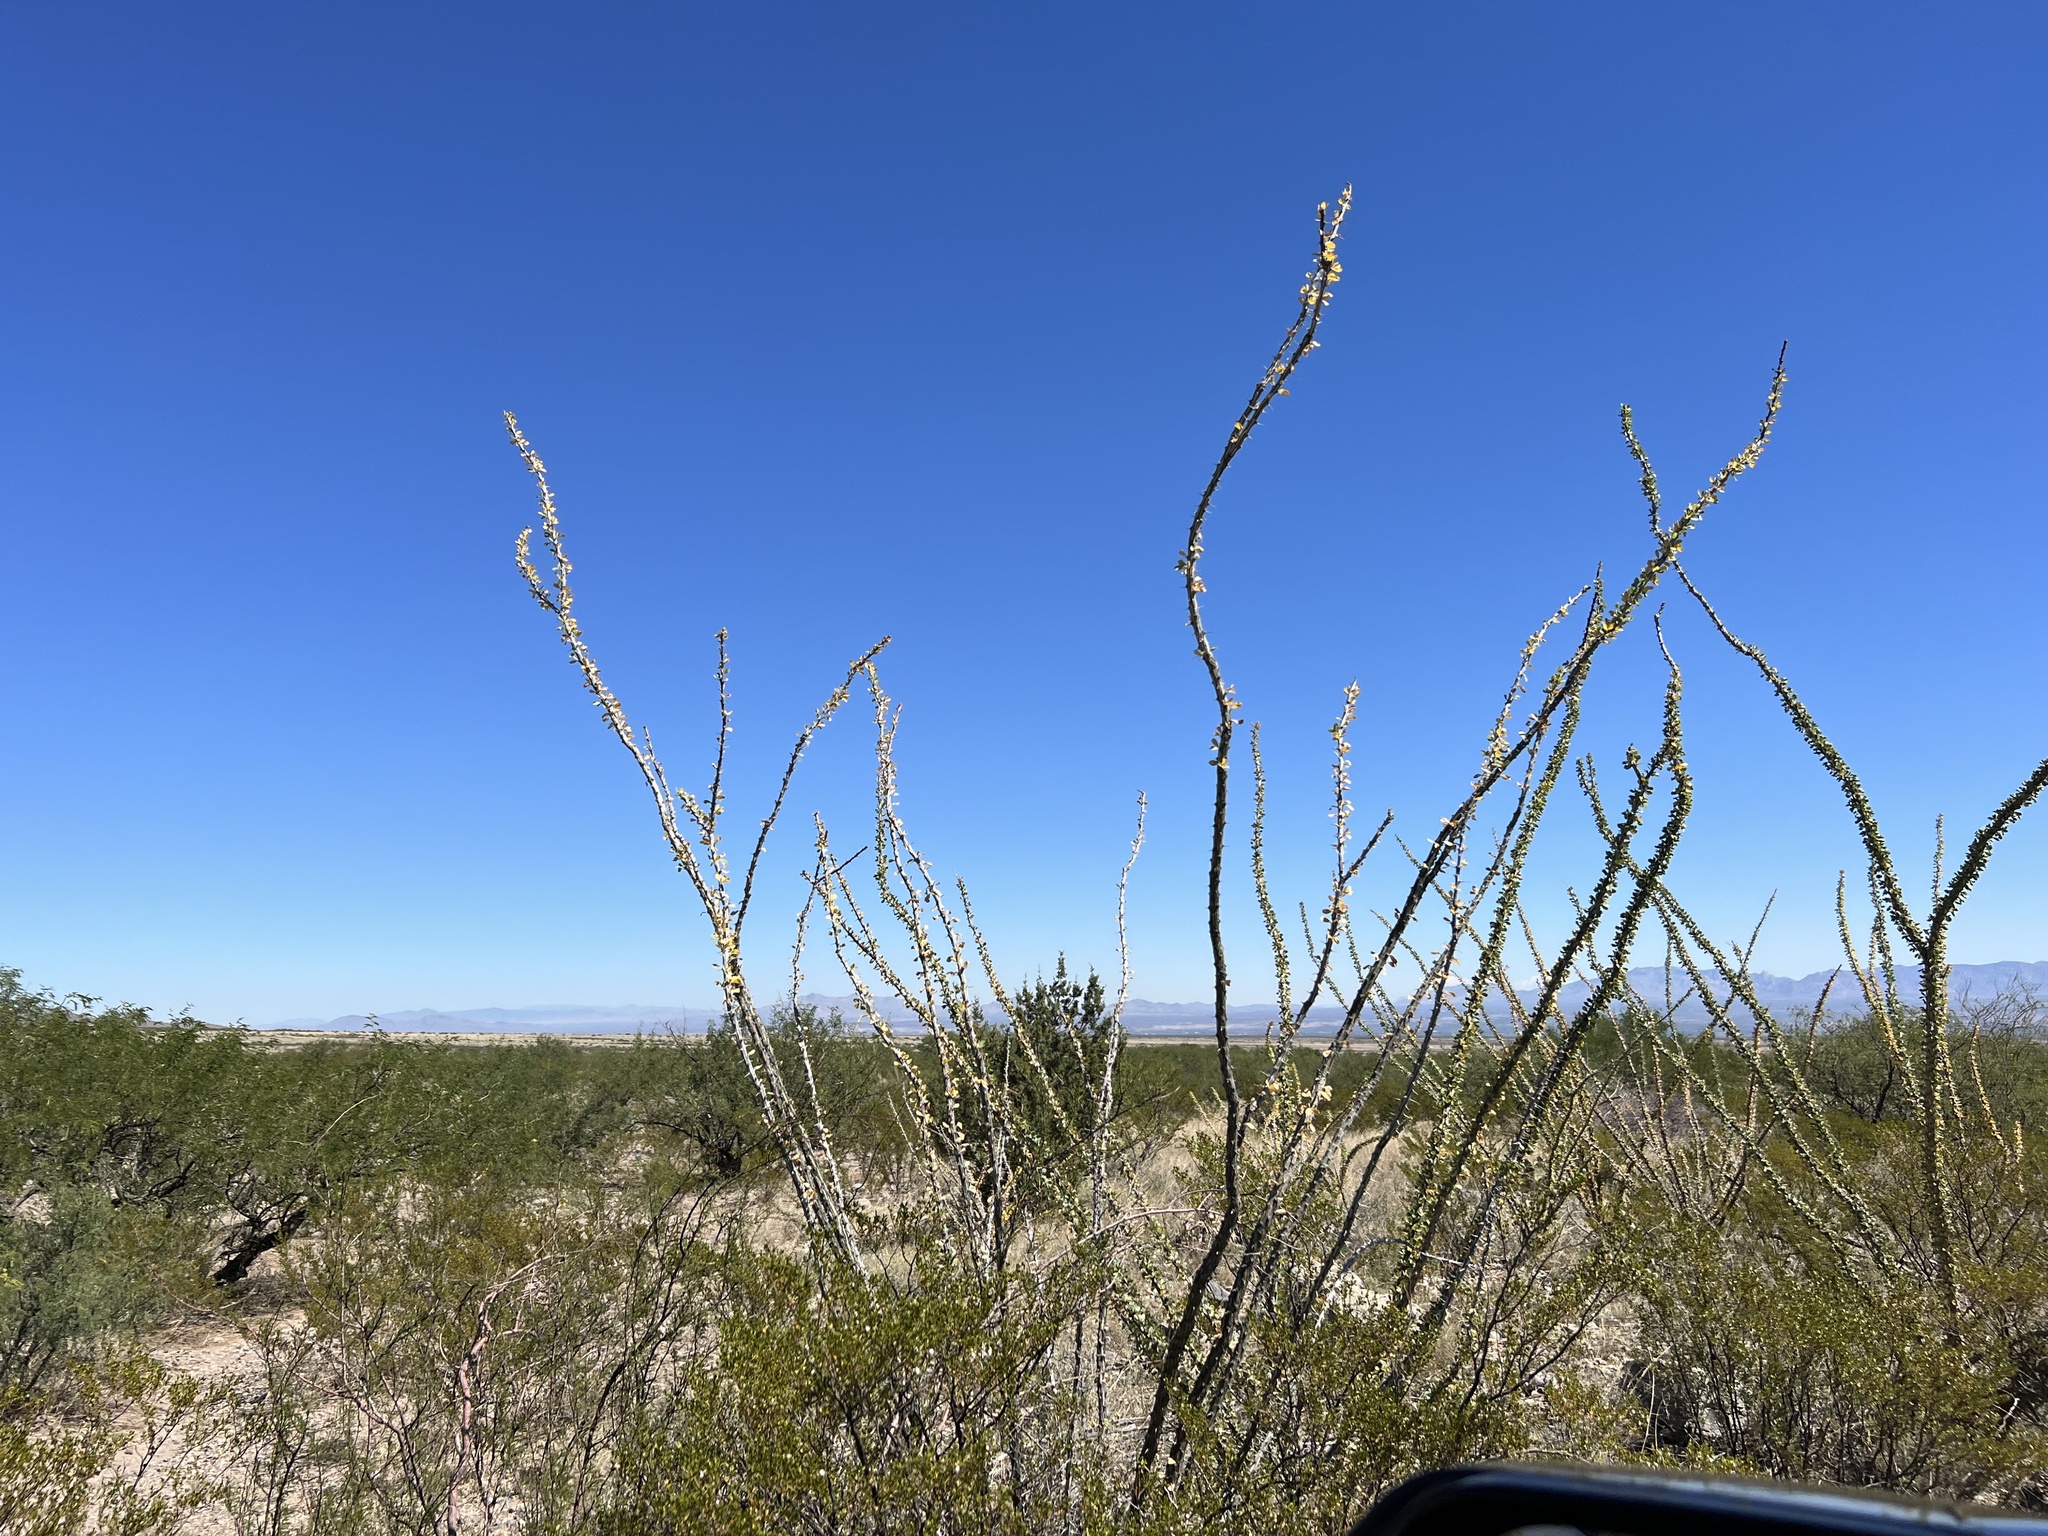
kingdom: Plantae
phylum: Tracheophyta
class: Magnoliopsida
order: Ericales
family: Fouquieriaceae
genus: Fouquieria
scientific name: Fouquieria splendens
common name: Vine-cactus
